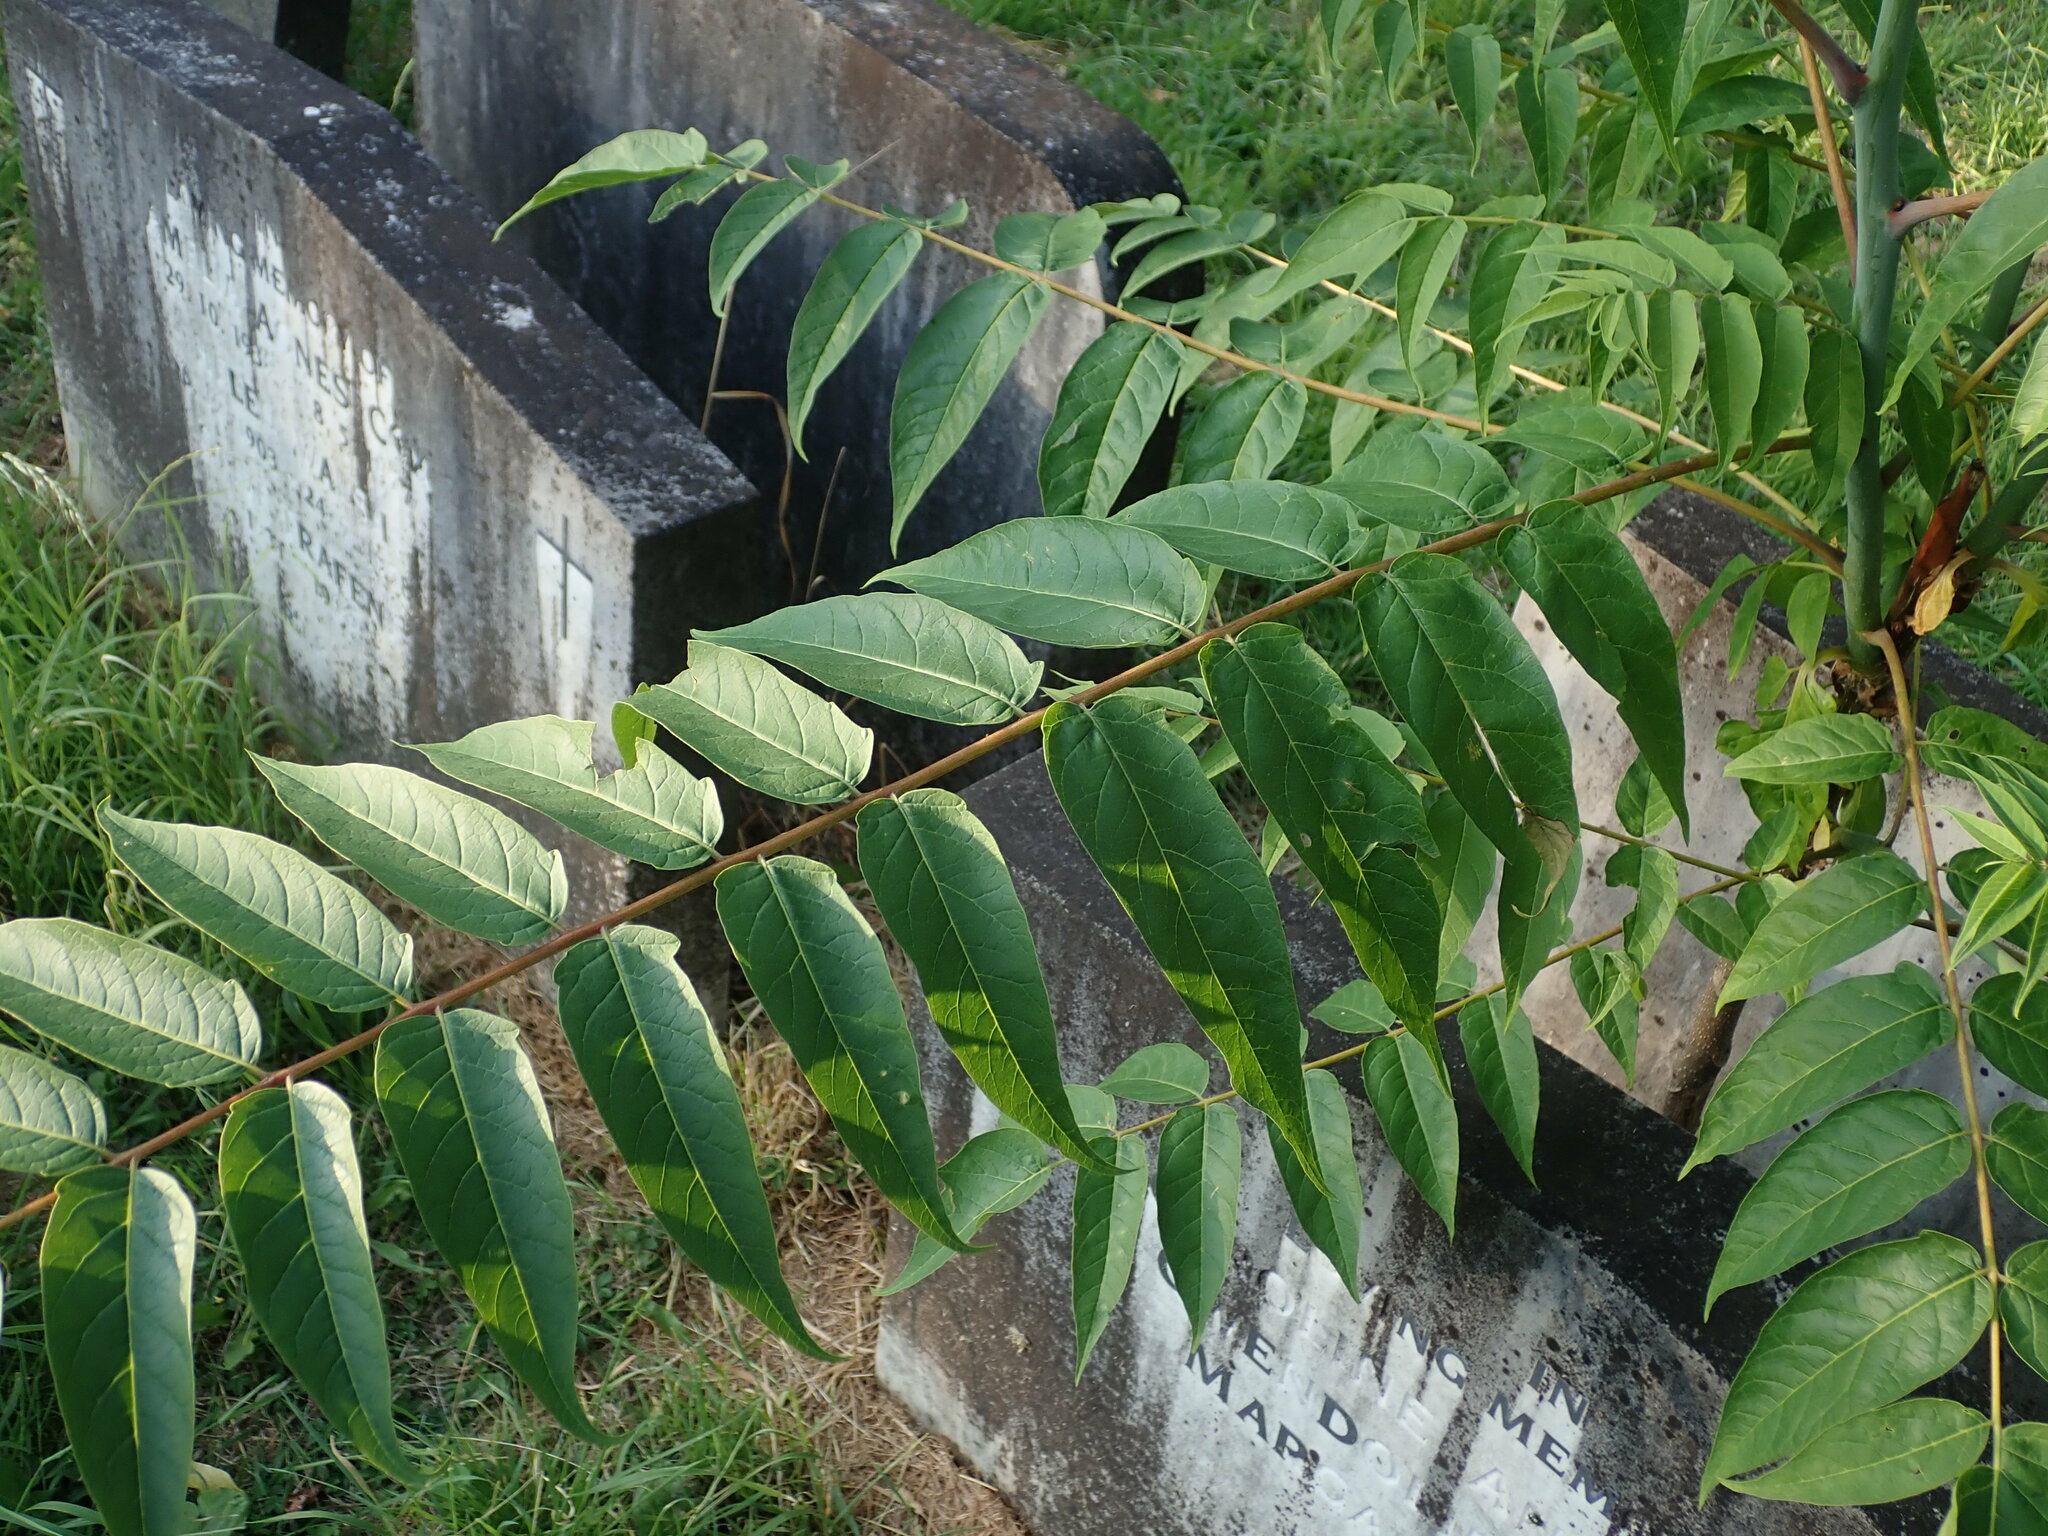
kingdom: Plantae
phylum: Tracheophyta
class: Magnoliopsida
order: Sapindales
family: Simaroubaceae
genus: Ailanthus
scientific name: Ailanthus altissima
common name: Tree-of-heaven
